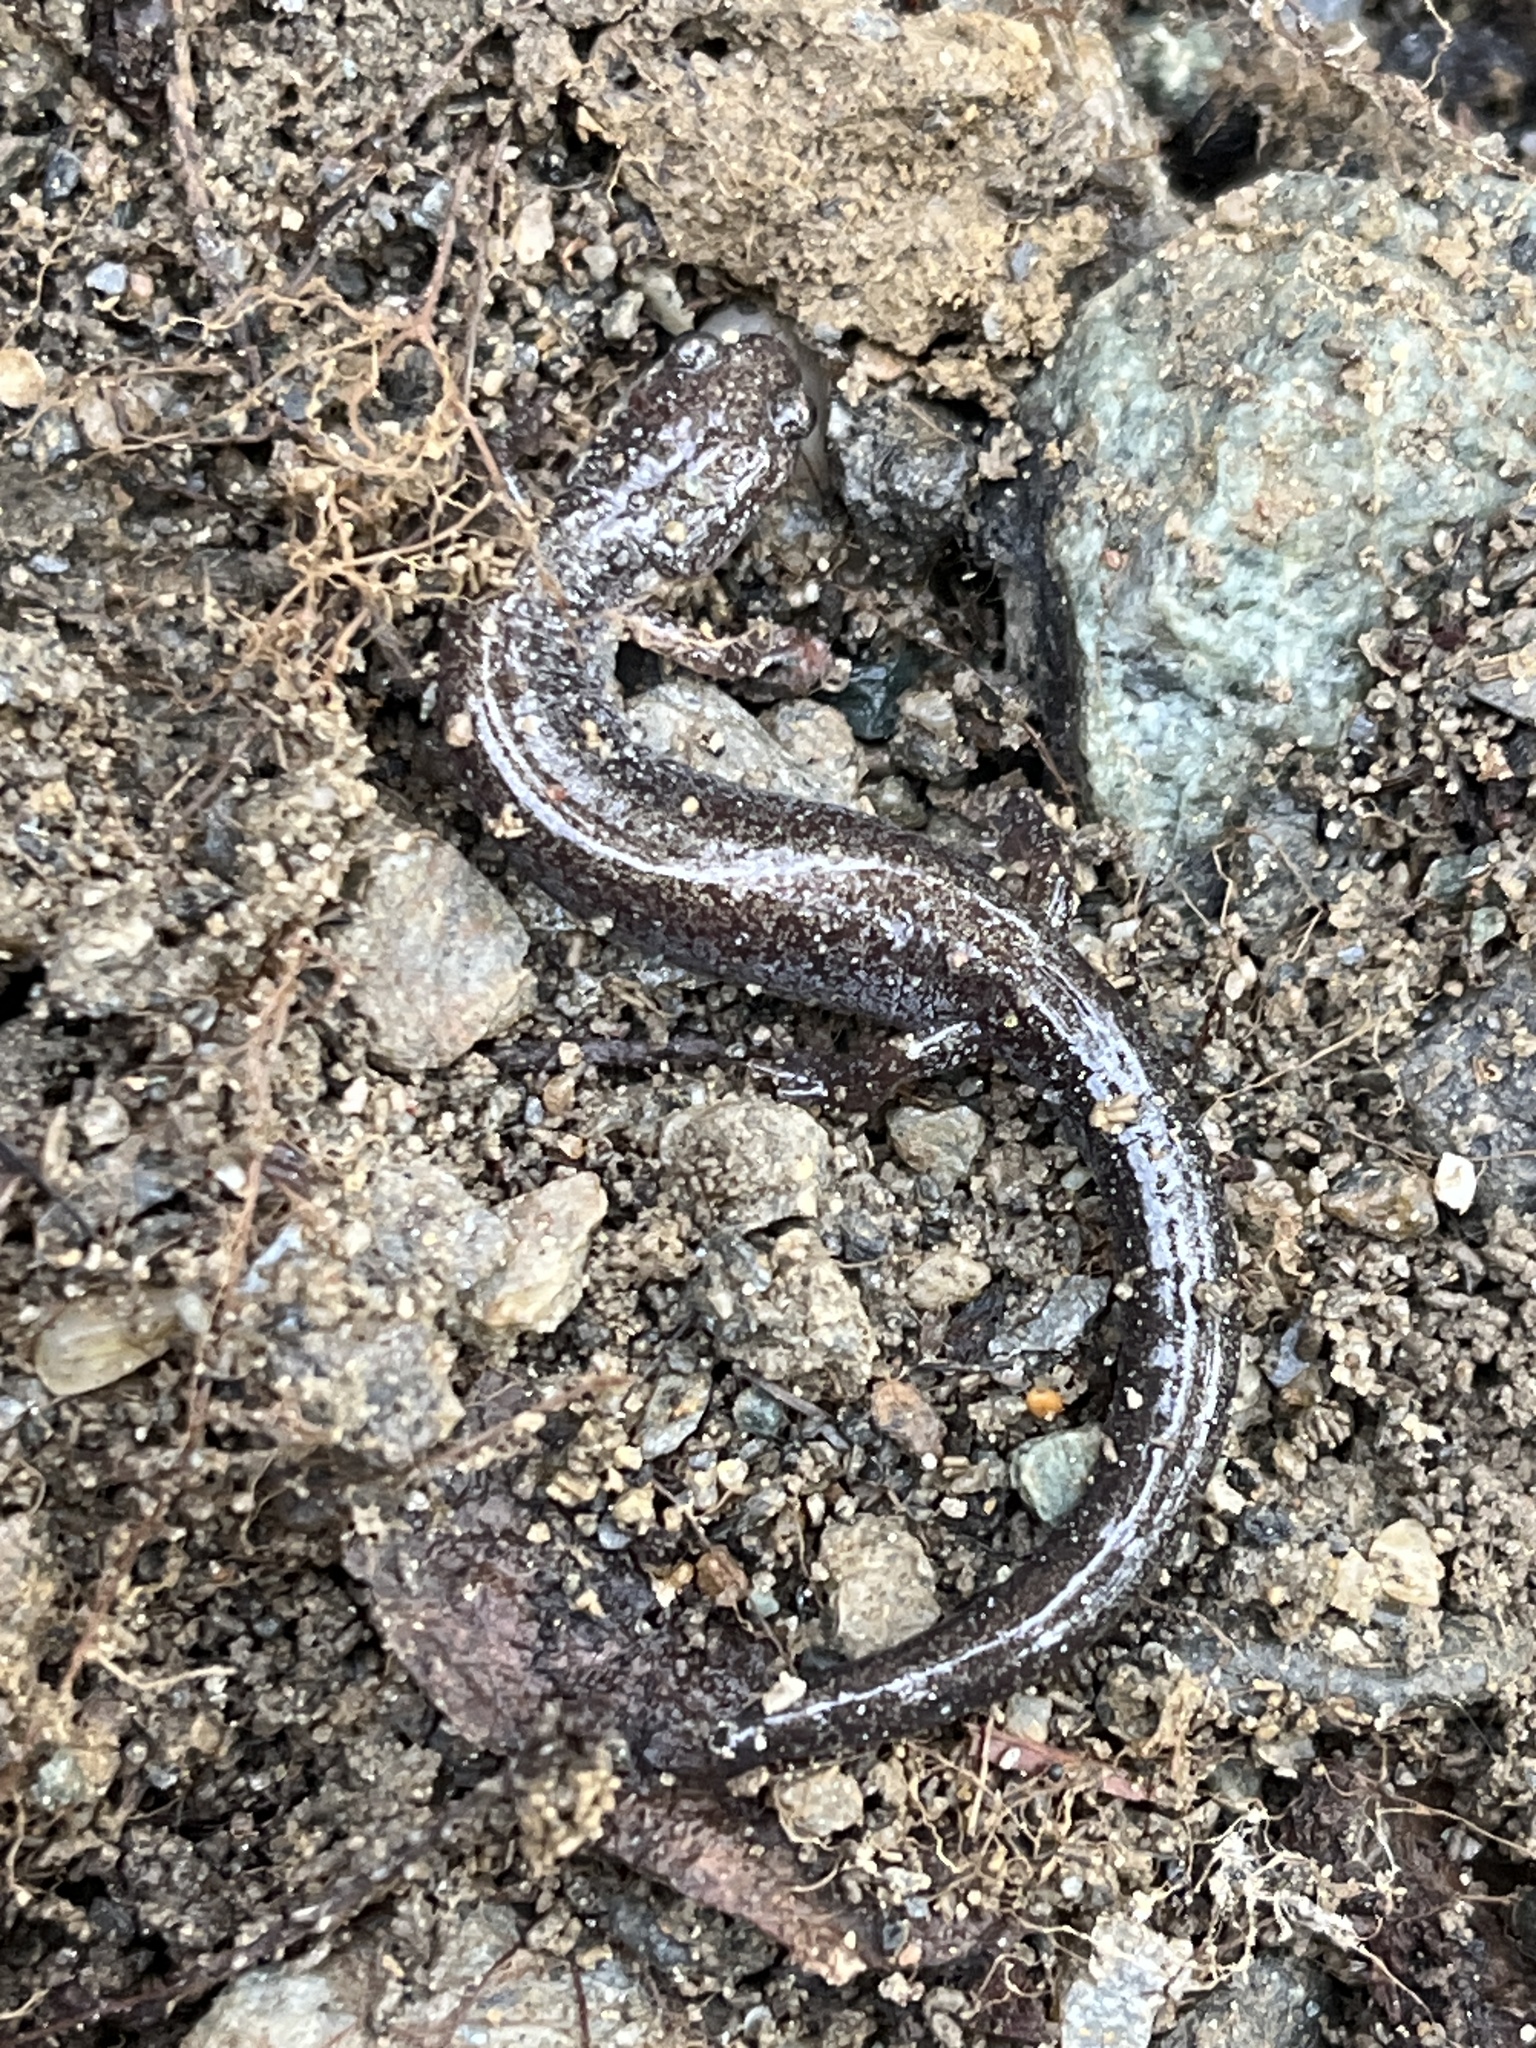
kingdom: Animalia
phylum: Chordata
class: Amphibia
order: Caudata
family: Plethodontidae
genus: Plethodon
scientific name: Plethodon cinereus
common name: Redback salamander
